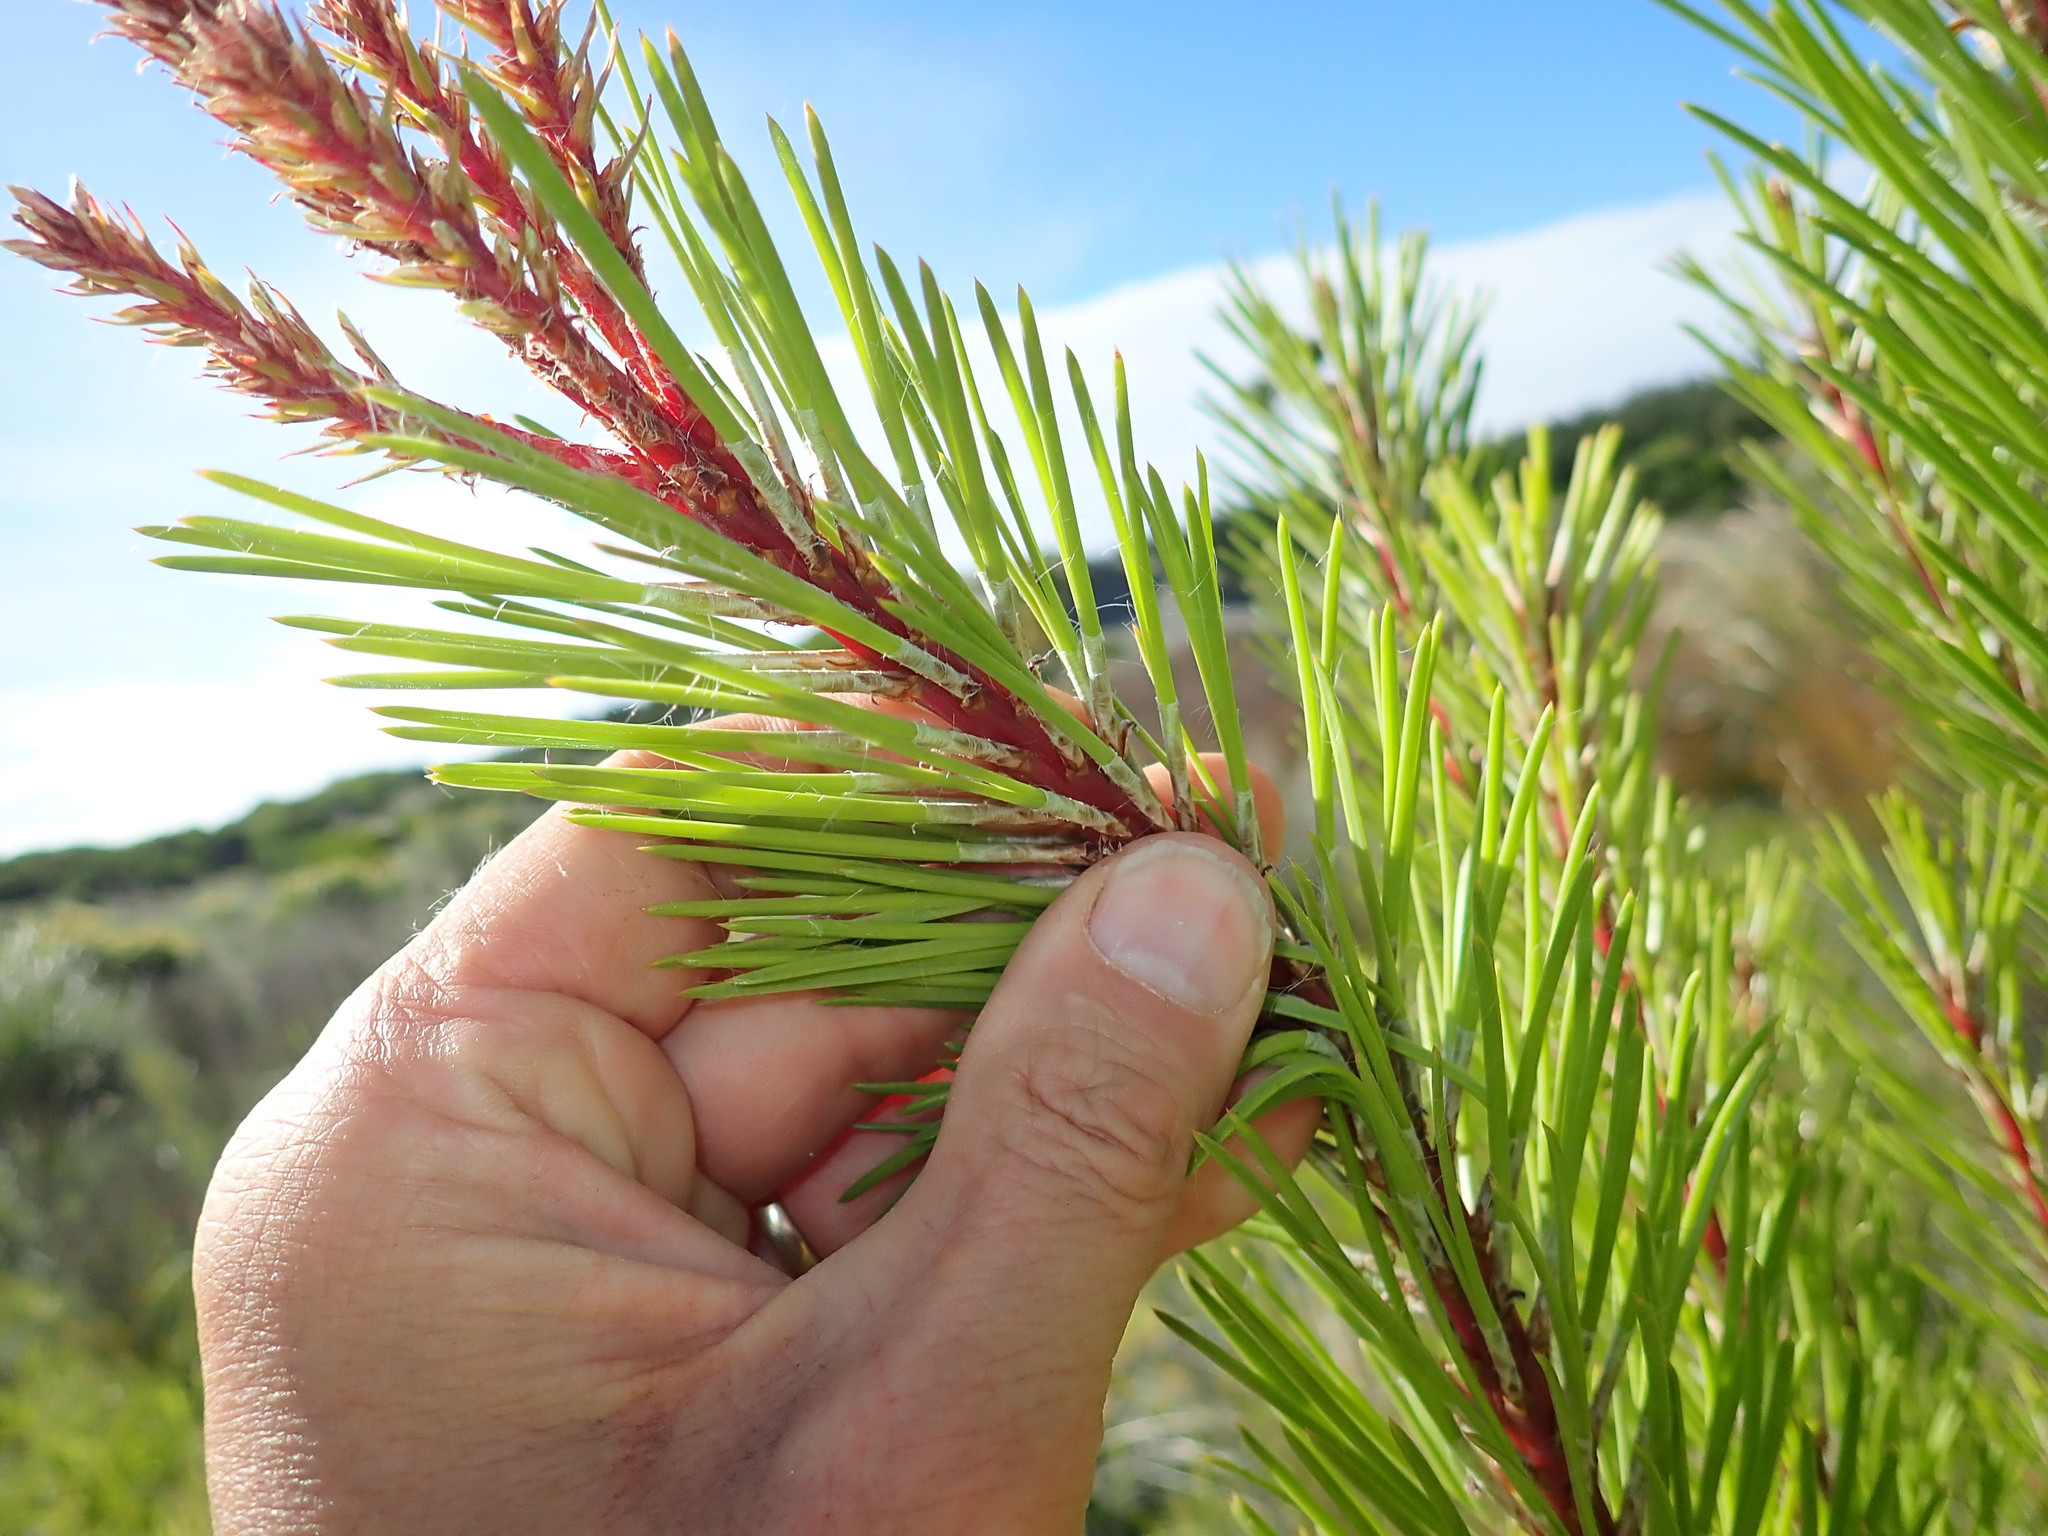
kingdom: Plantae
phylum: Tracheophyta
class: Pinopsida
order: Pinales
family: Pinaceae
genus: Pinus
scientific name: Pinus pinaster
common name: Maritime pine
